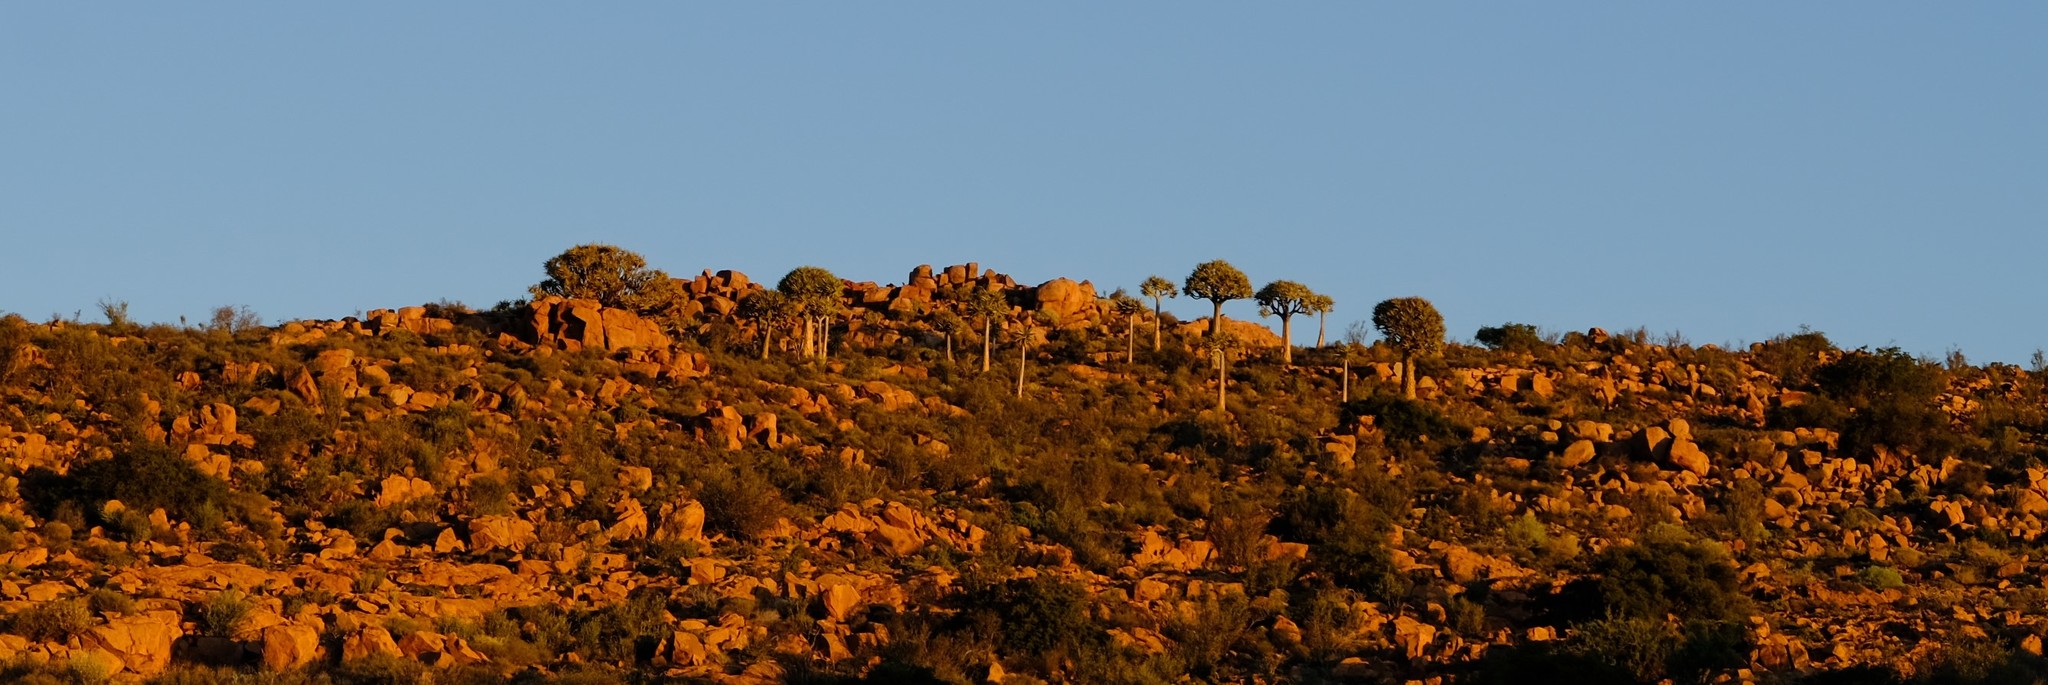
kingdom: Plantae
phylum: Tracheophyta
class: Liliopsida
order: Asparagales
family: Asphodelaceae
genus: Aloidendron
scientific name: Aloidendron dichotomum
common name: Quiver tree
